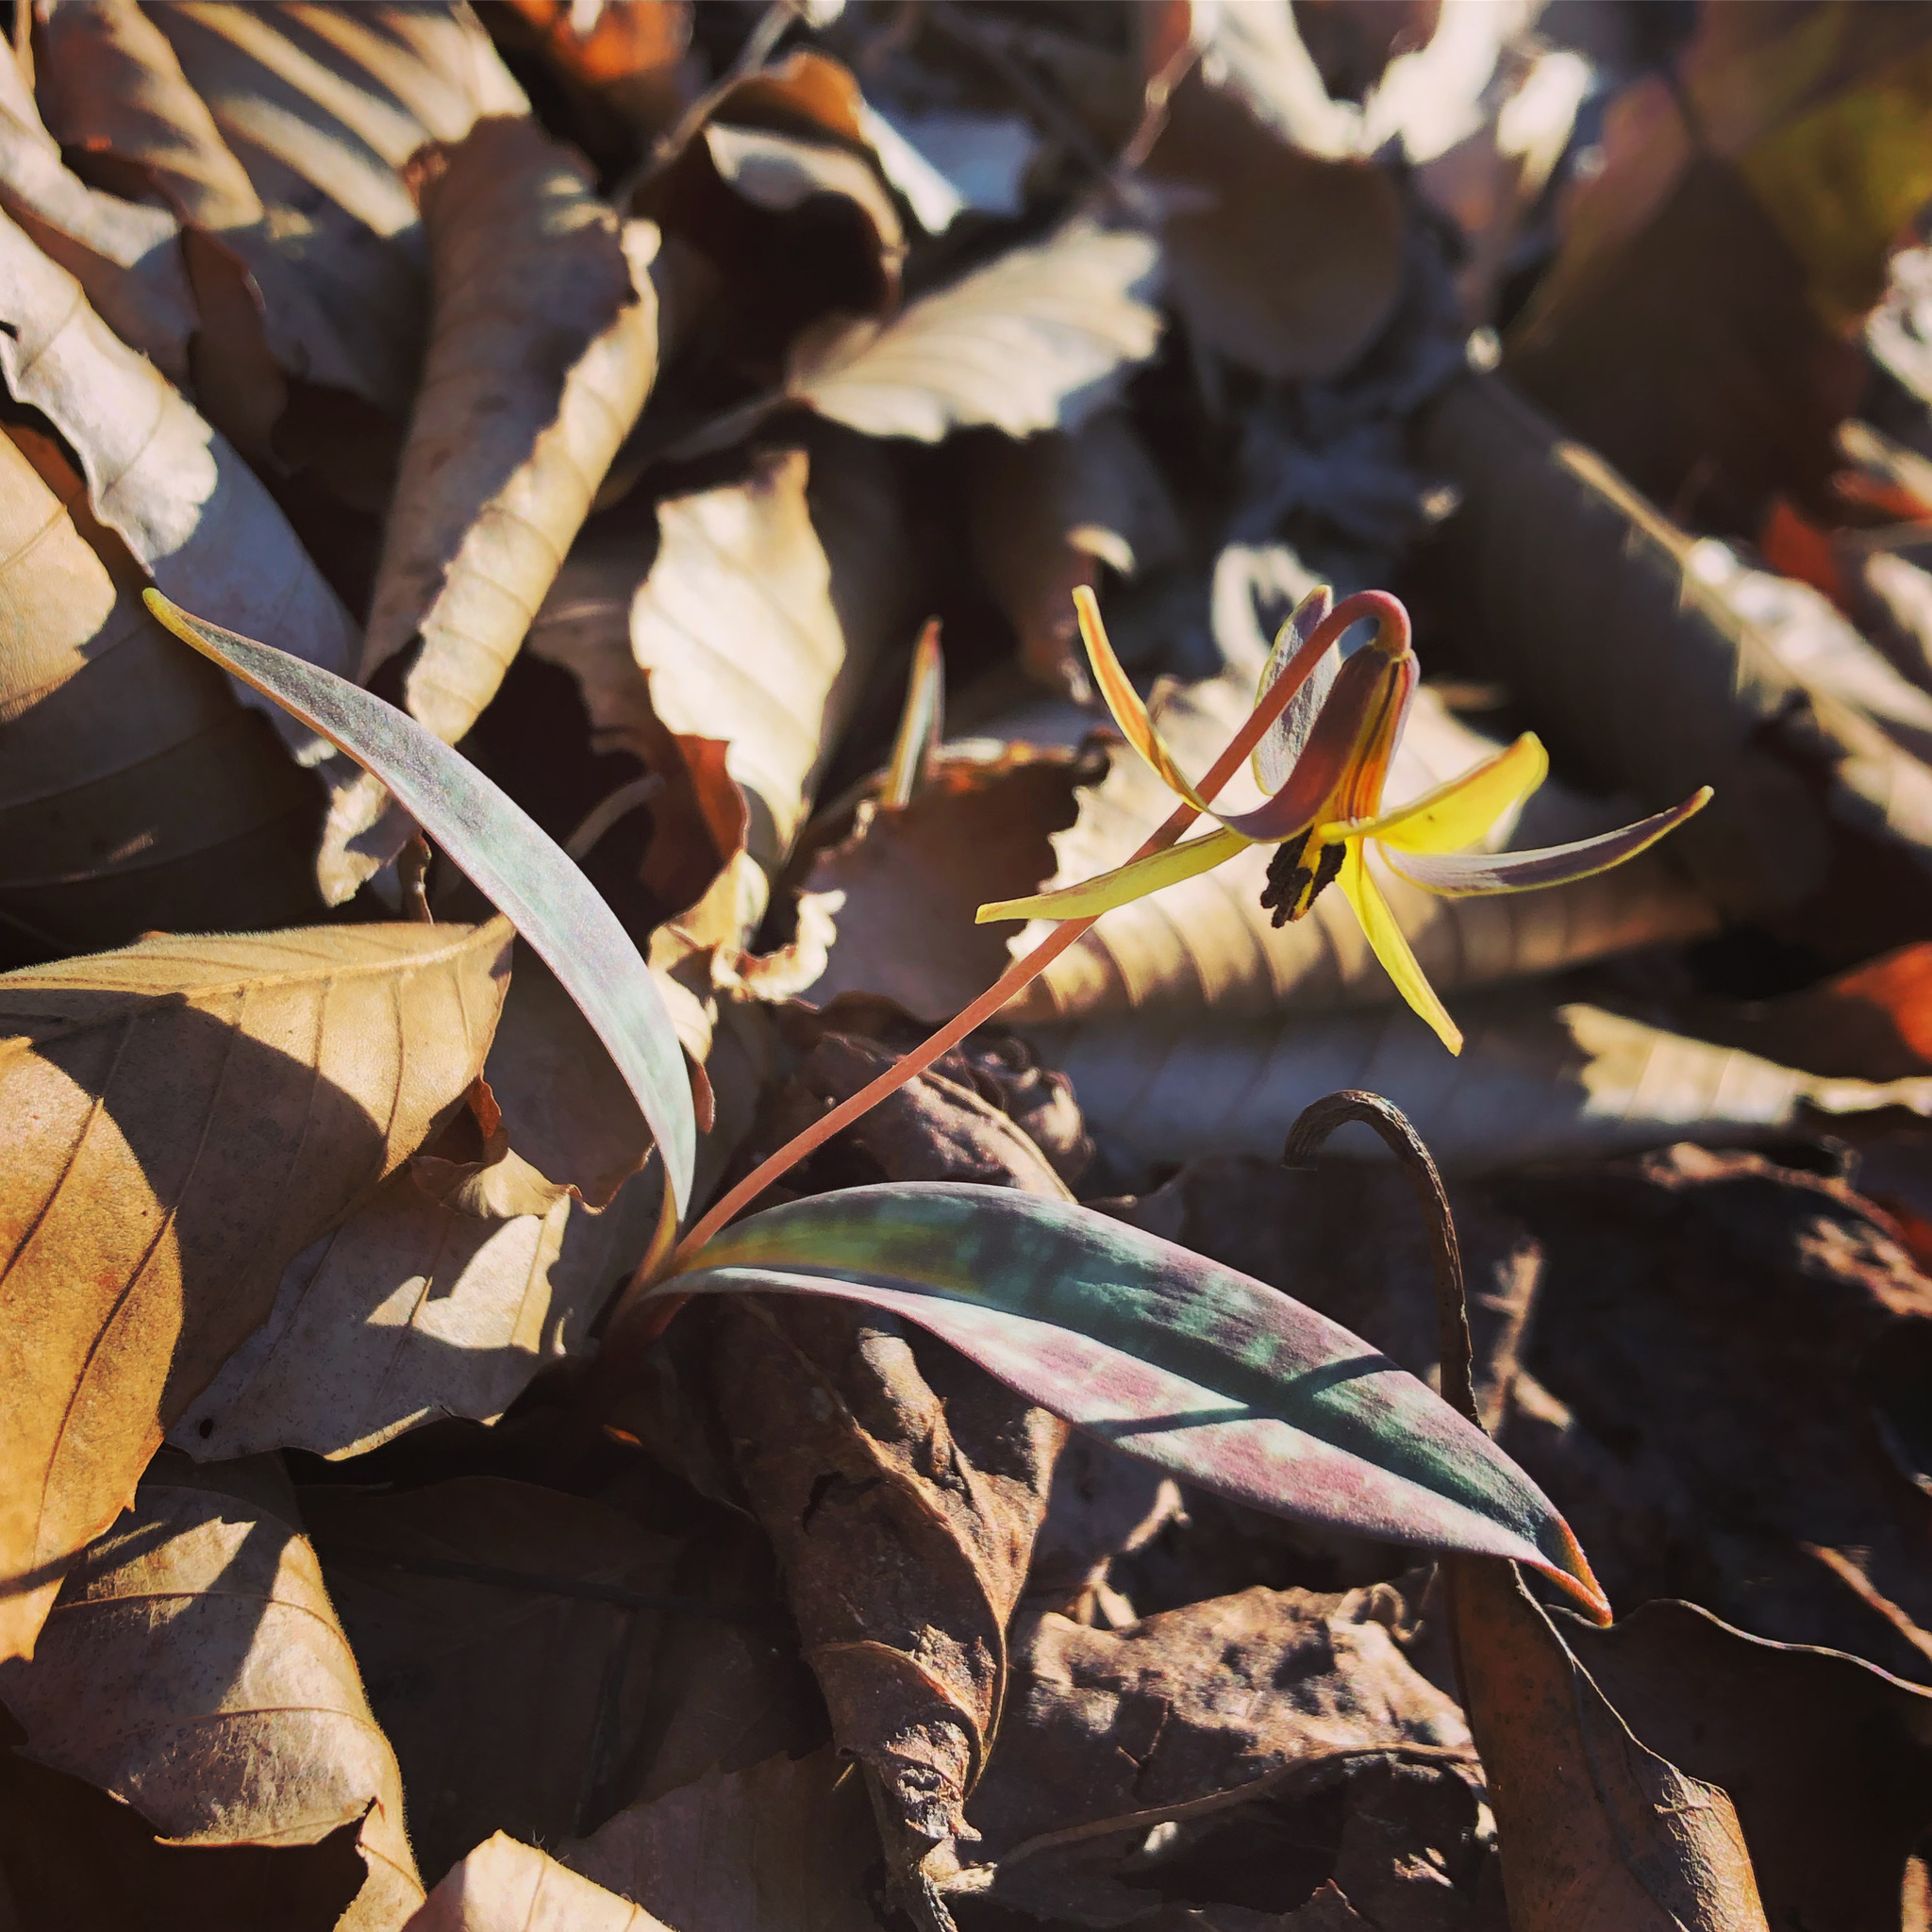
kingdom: Plantae
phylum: Tracheophyta
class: Liliopsida
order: Liliales
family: Liliaceae
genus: Erythronium
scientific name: Erythronium umbilicatum
